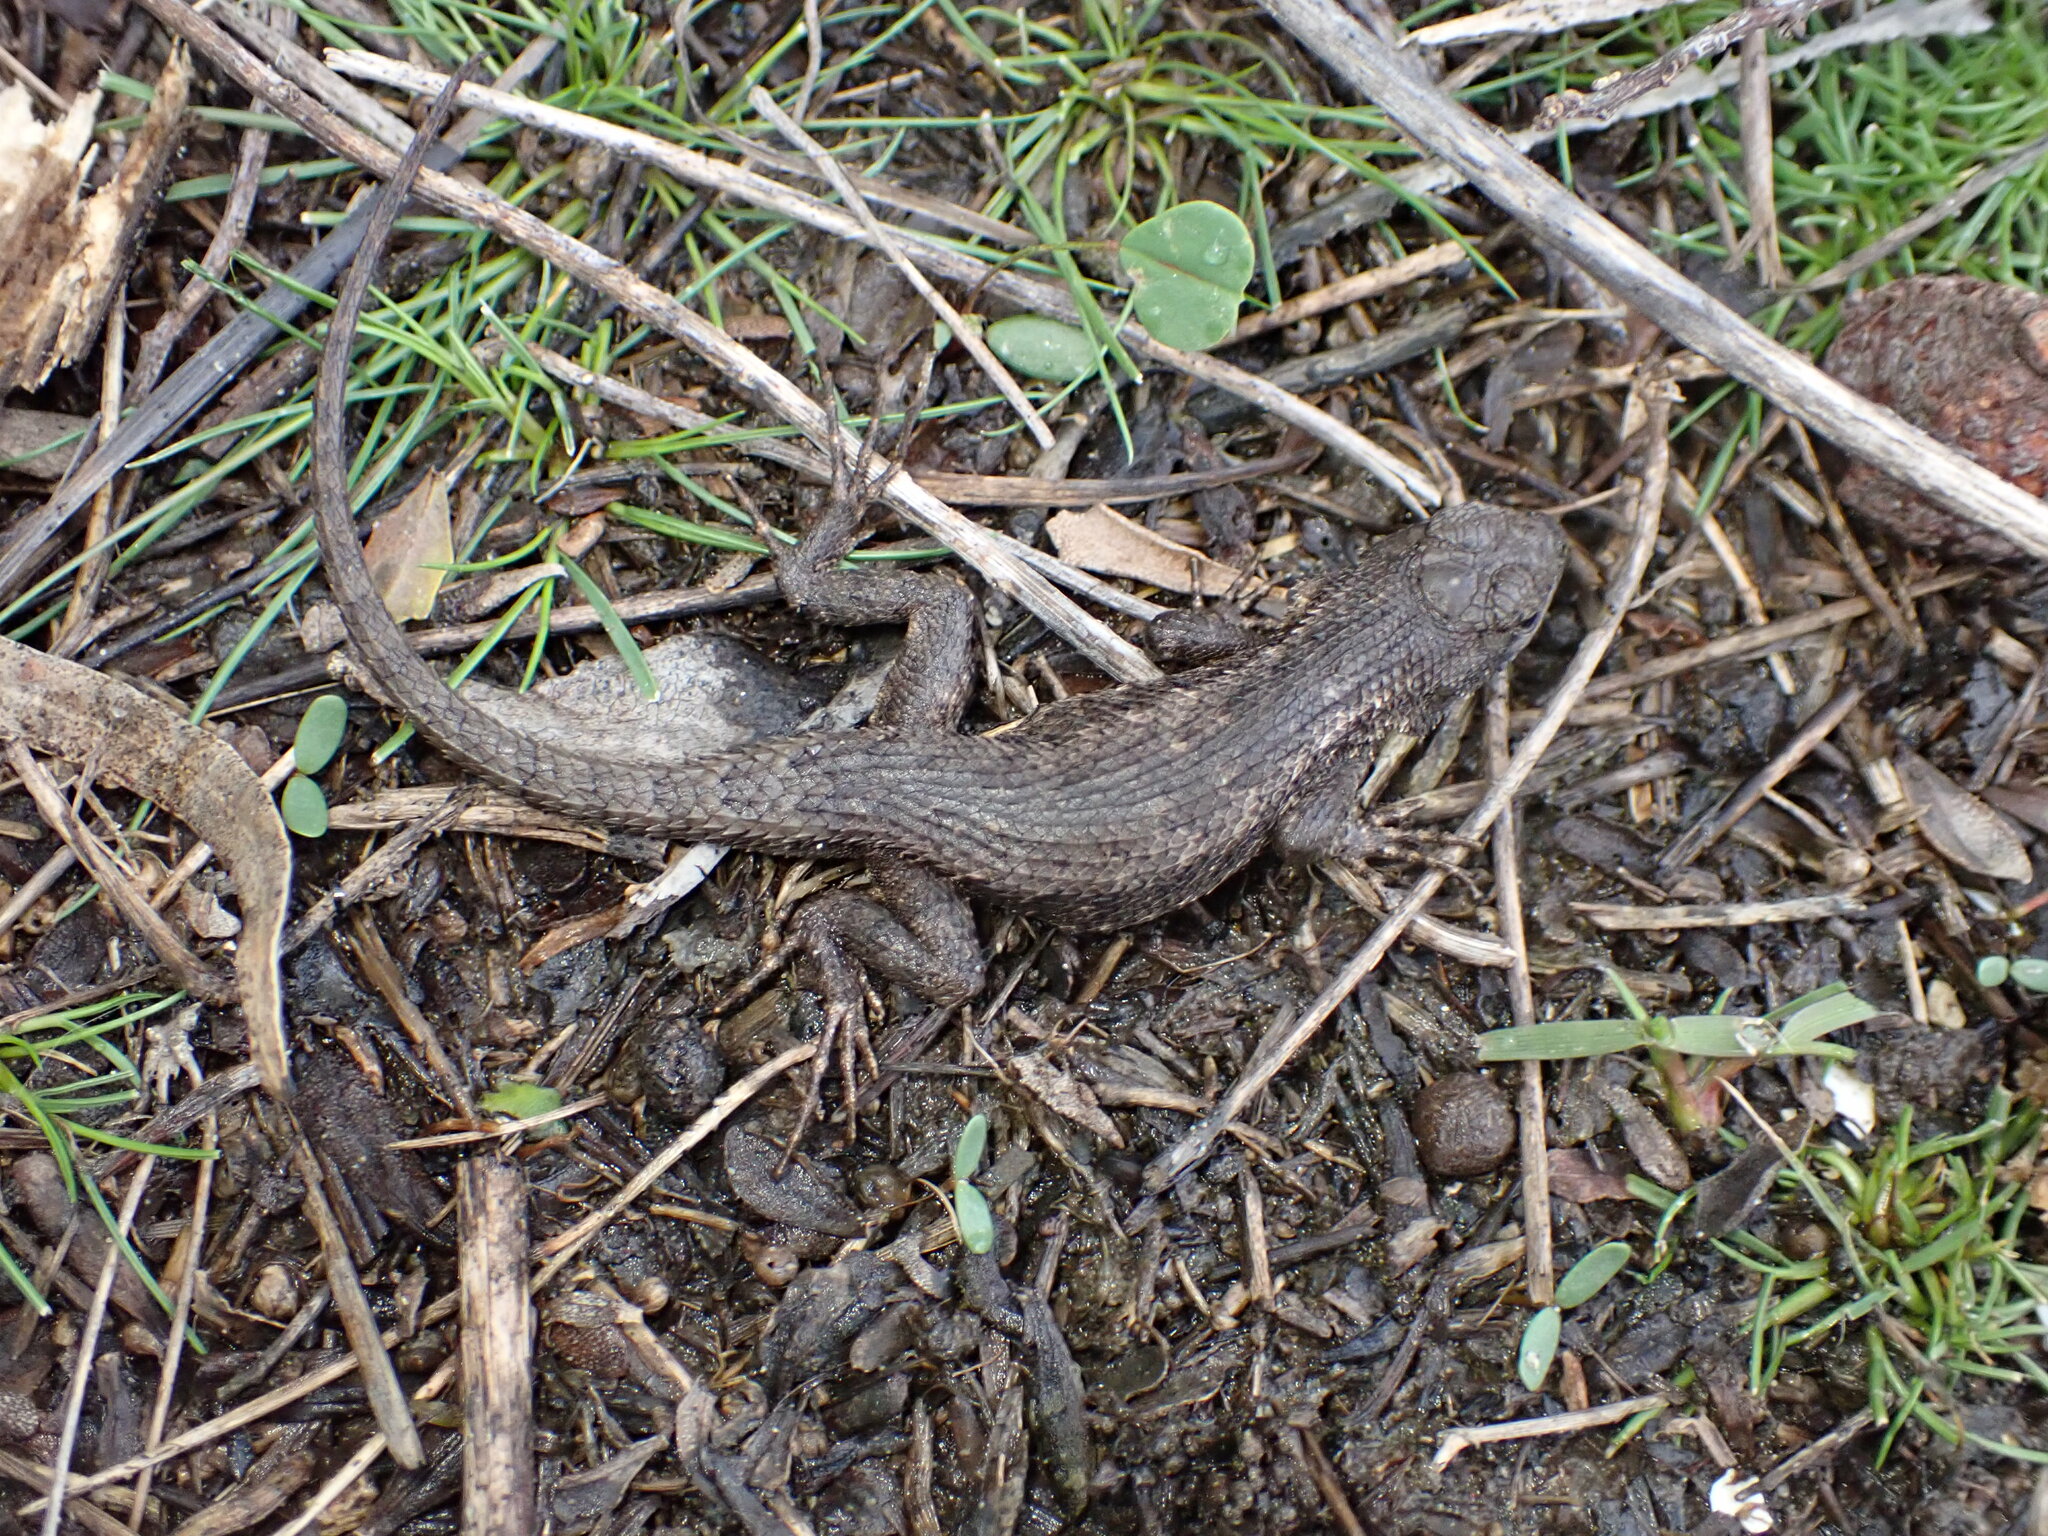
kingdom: Animalia
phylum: Chordata
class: Squamata
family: Phrynosomatidae
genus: Sceloporus
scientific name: Sceloporus occidentalis
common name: Western fence lizard
